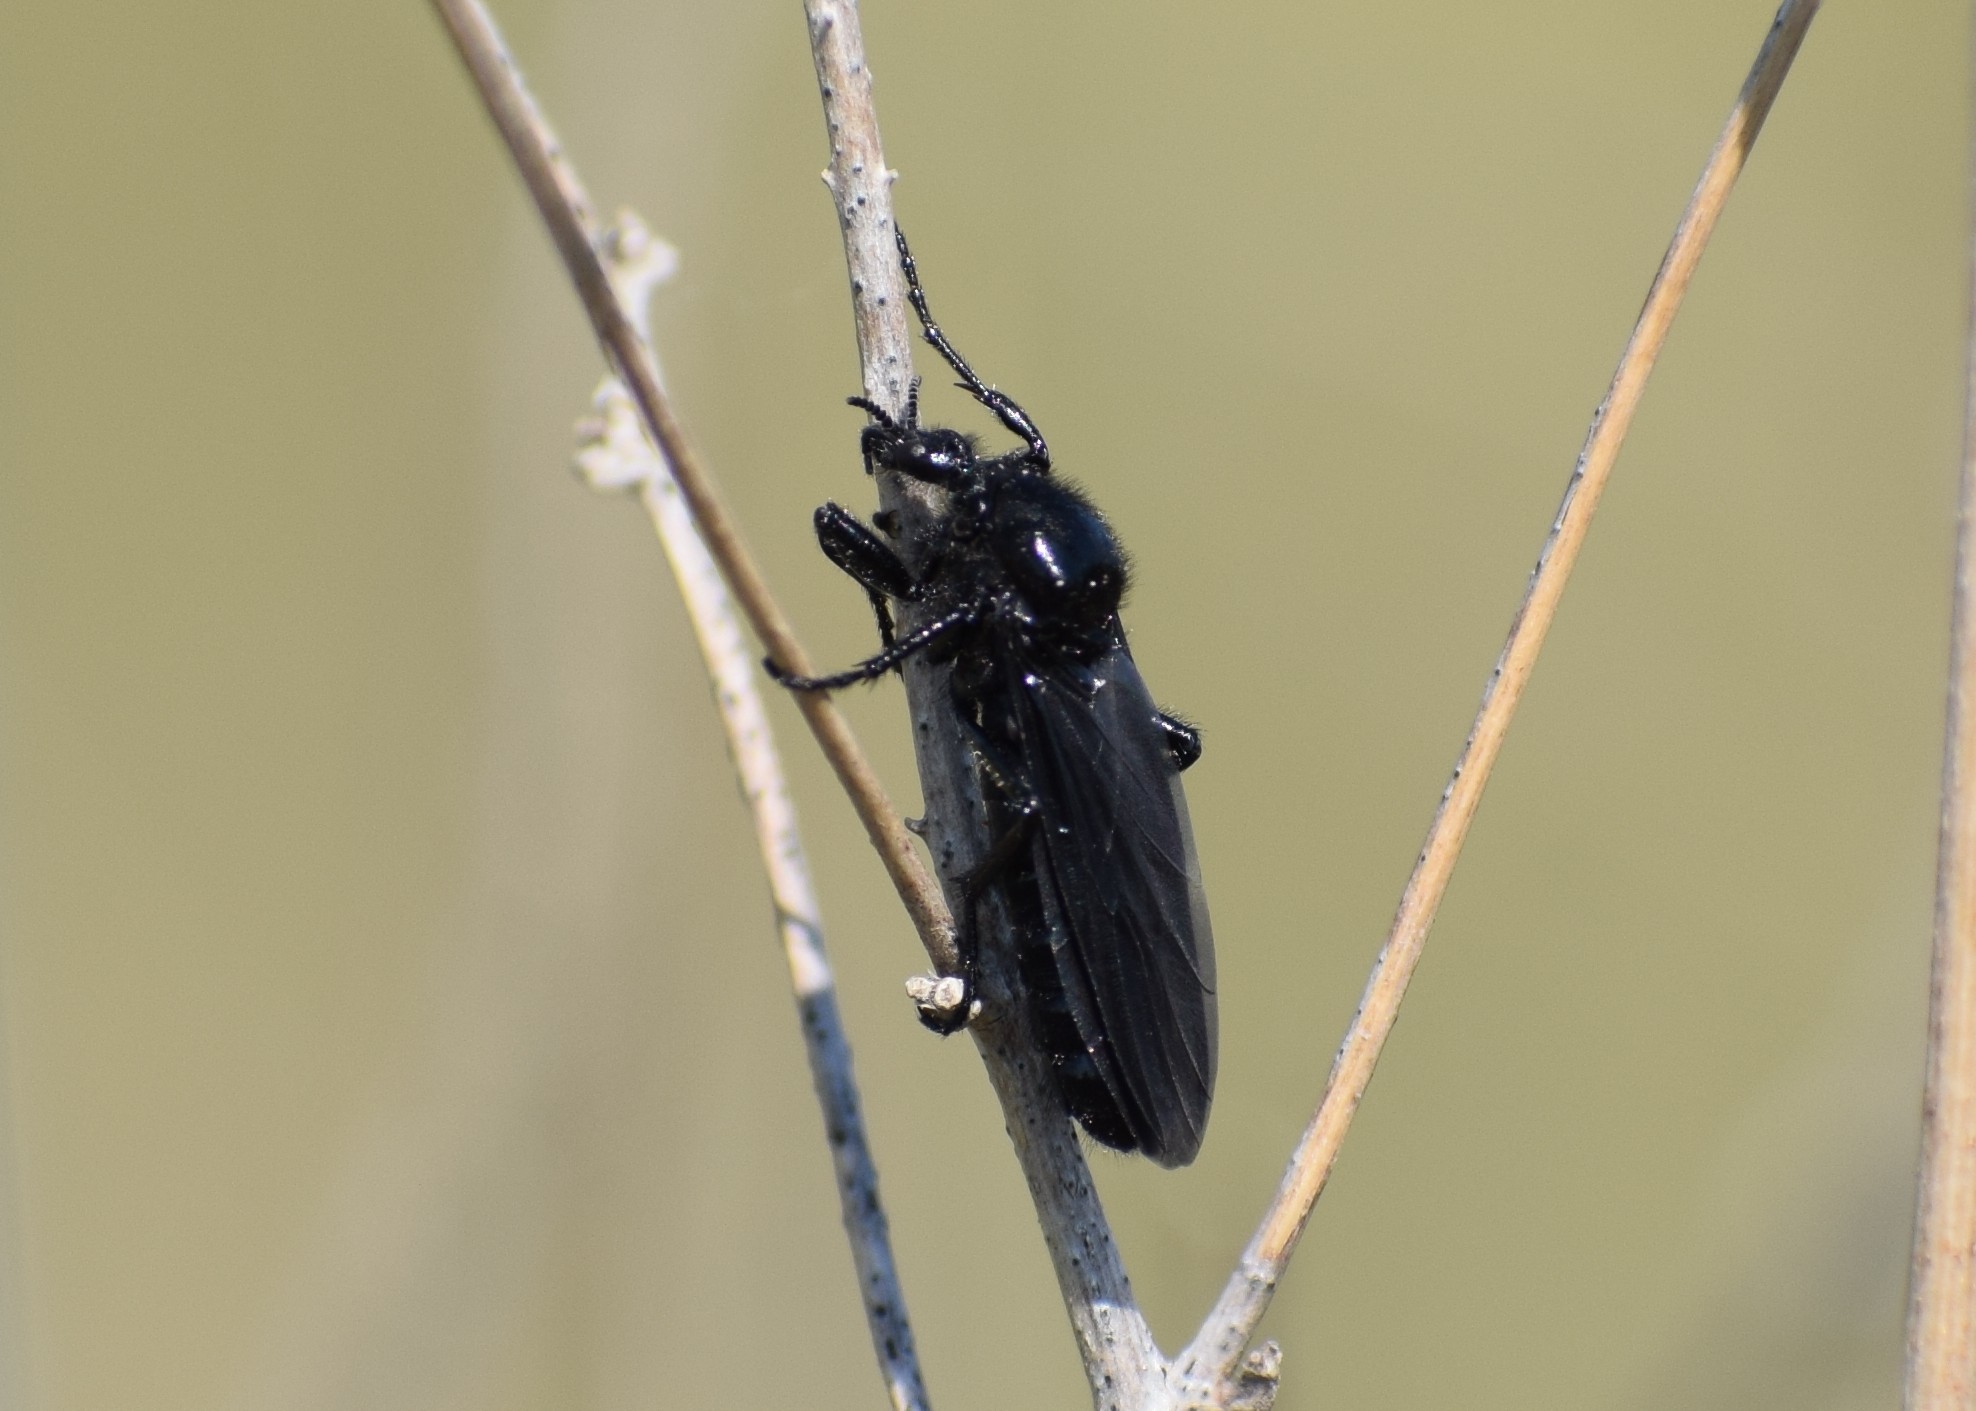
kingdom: Animalia
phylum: Arthropoda
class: Insecta
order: Diptera
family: Bibionidae
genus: Bibio
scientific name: Bibio
